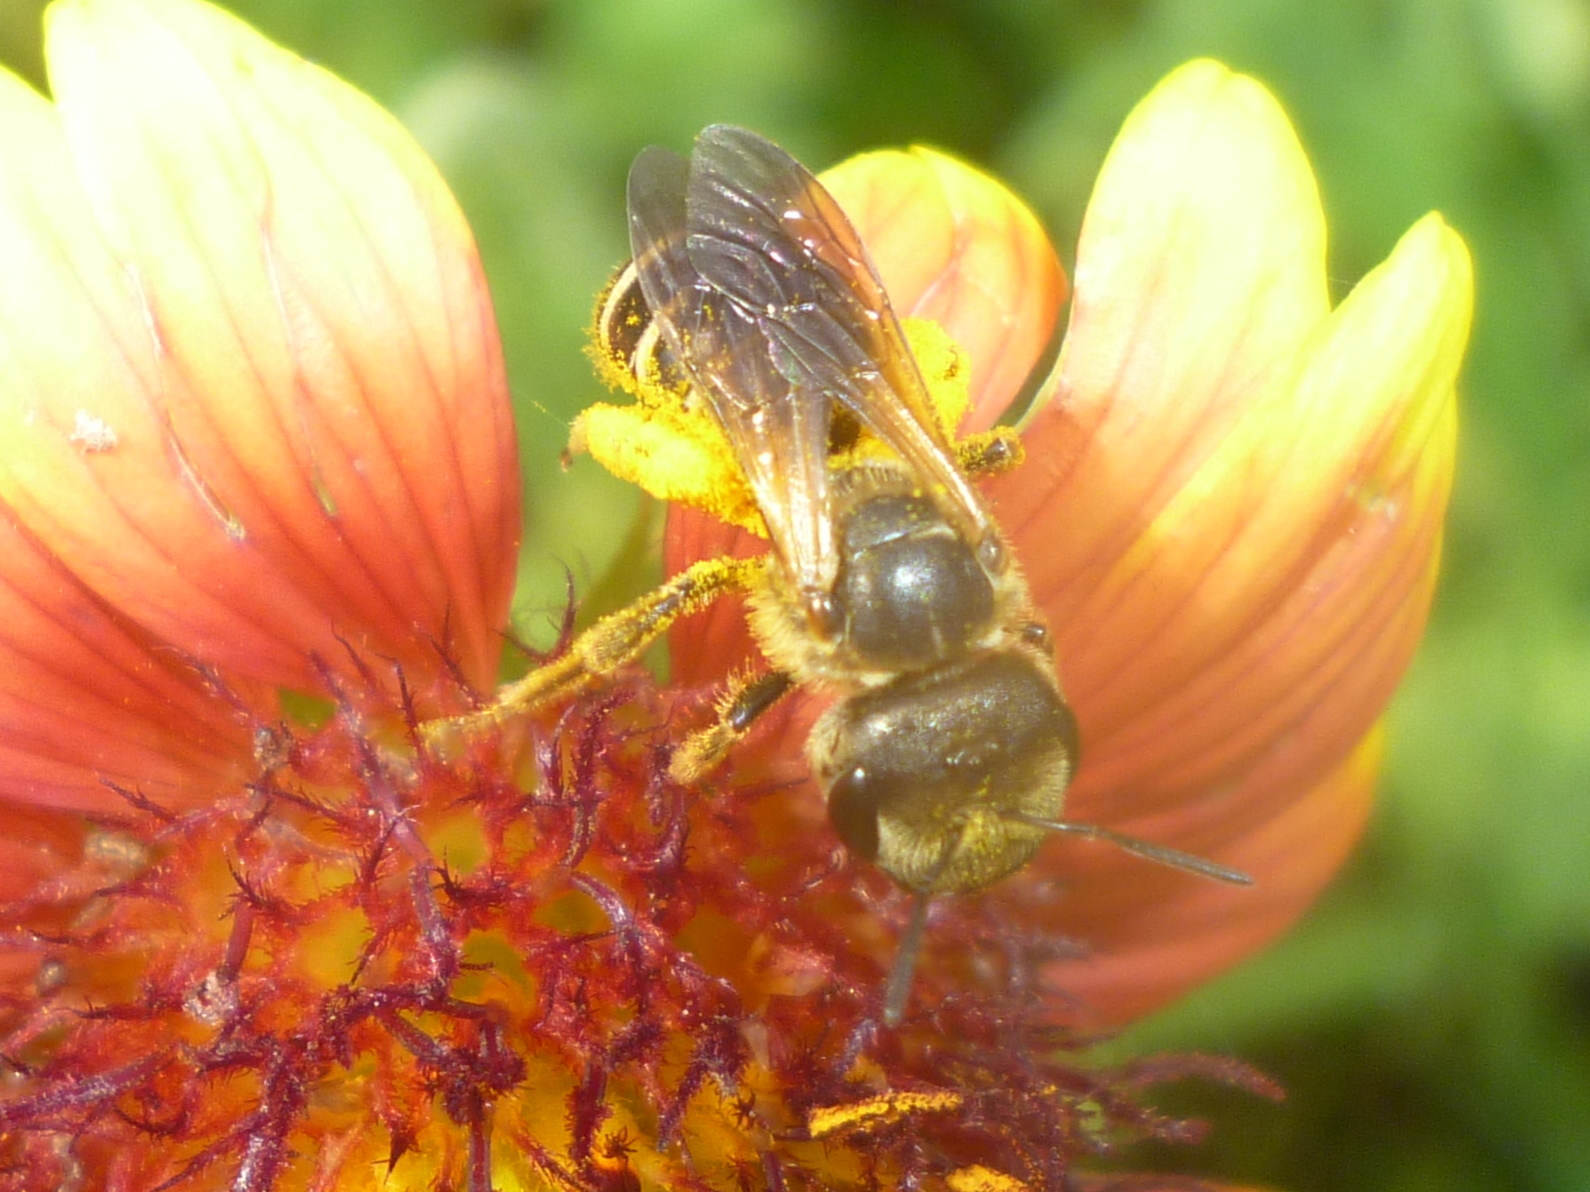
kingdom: Animalia
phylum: Arthropoda
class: Insecta
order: Hymenoptera
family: Halictidae
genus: Halictus
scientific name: Halictus poeyi
